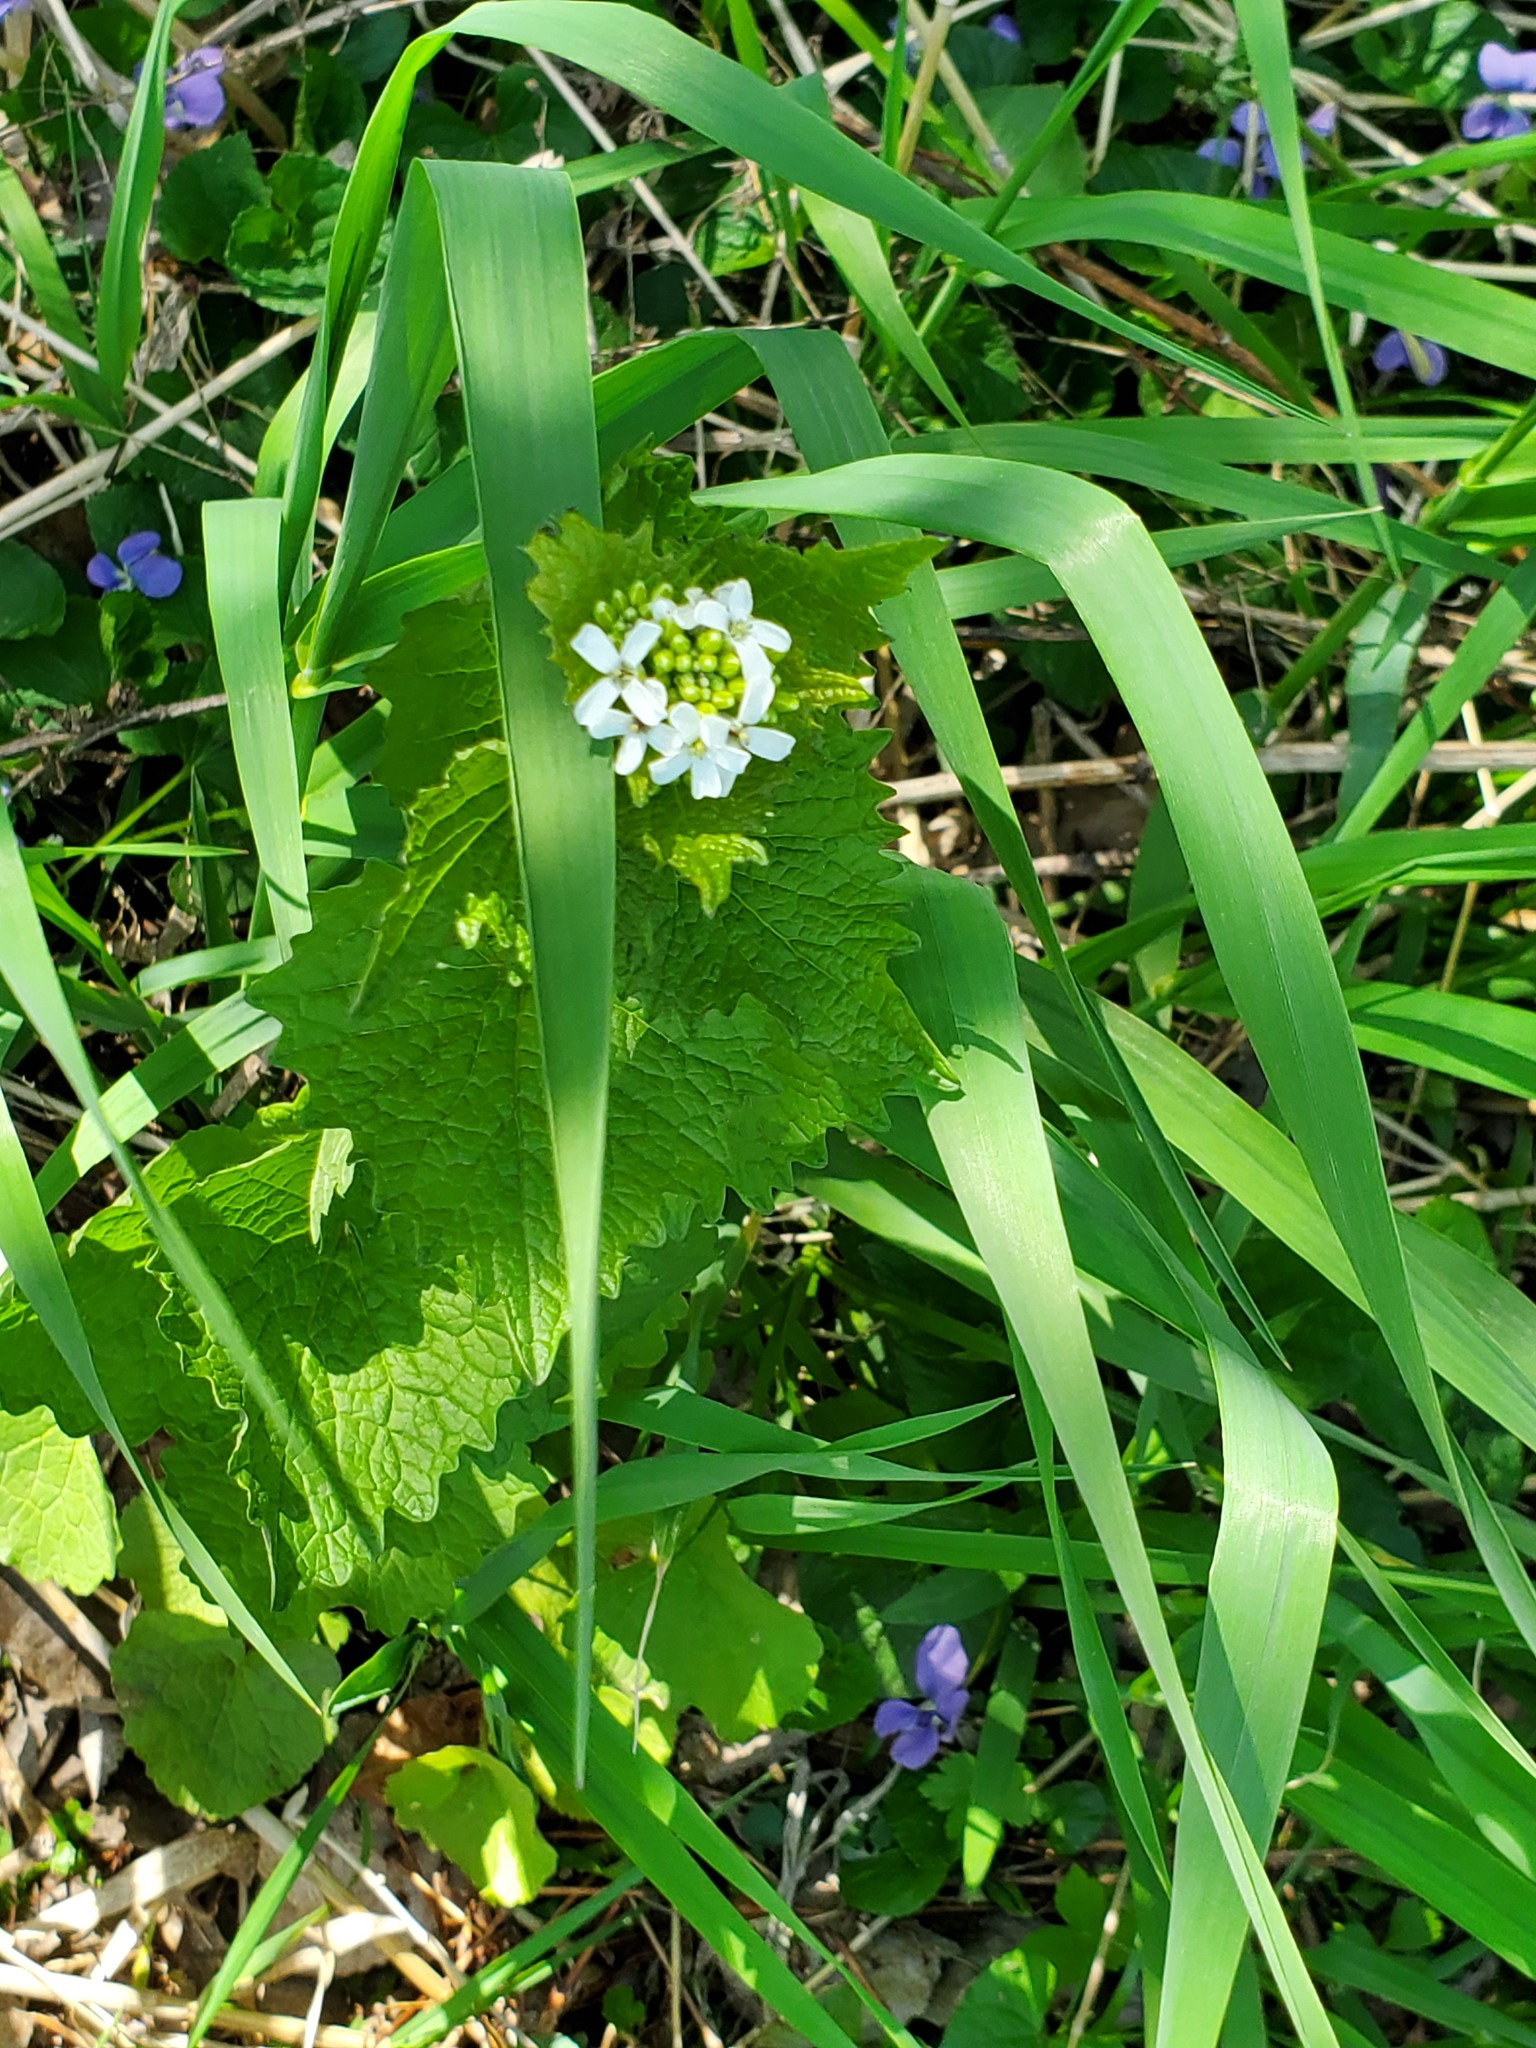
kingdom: Plantae
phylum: Tracheophyta
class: Magnoliopsida
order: Brassicales
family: Brassicaceae
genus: Alliaria
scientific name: Alliaria petiolata
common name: Garlic mustard
